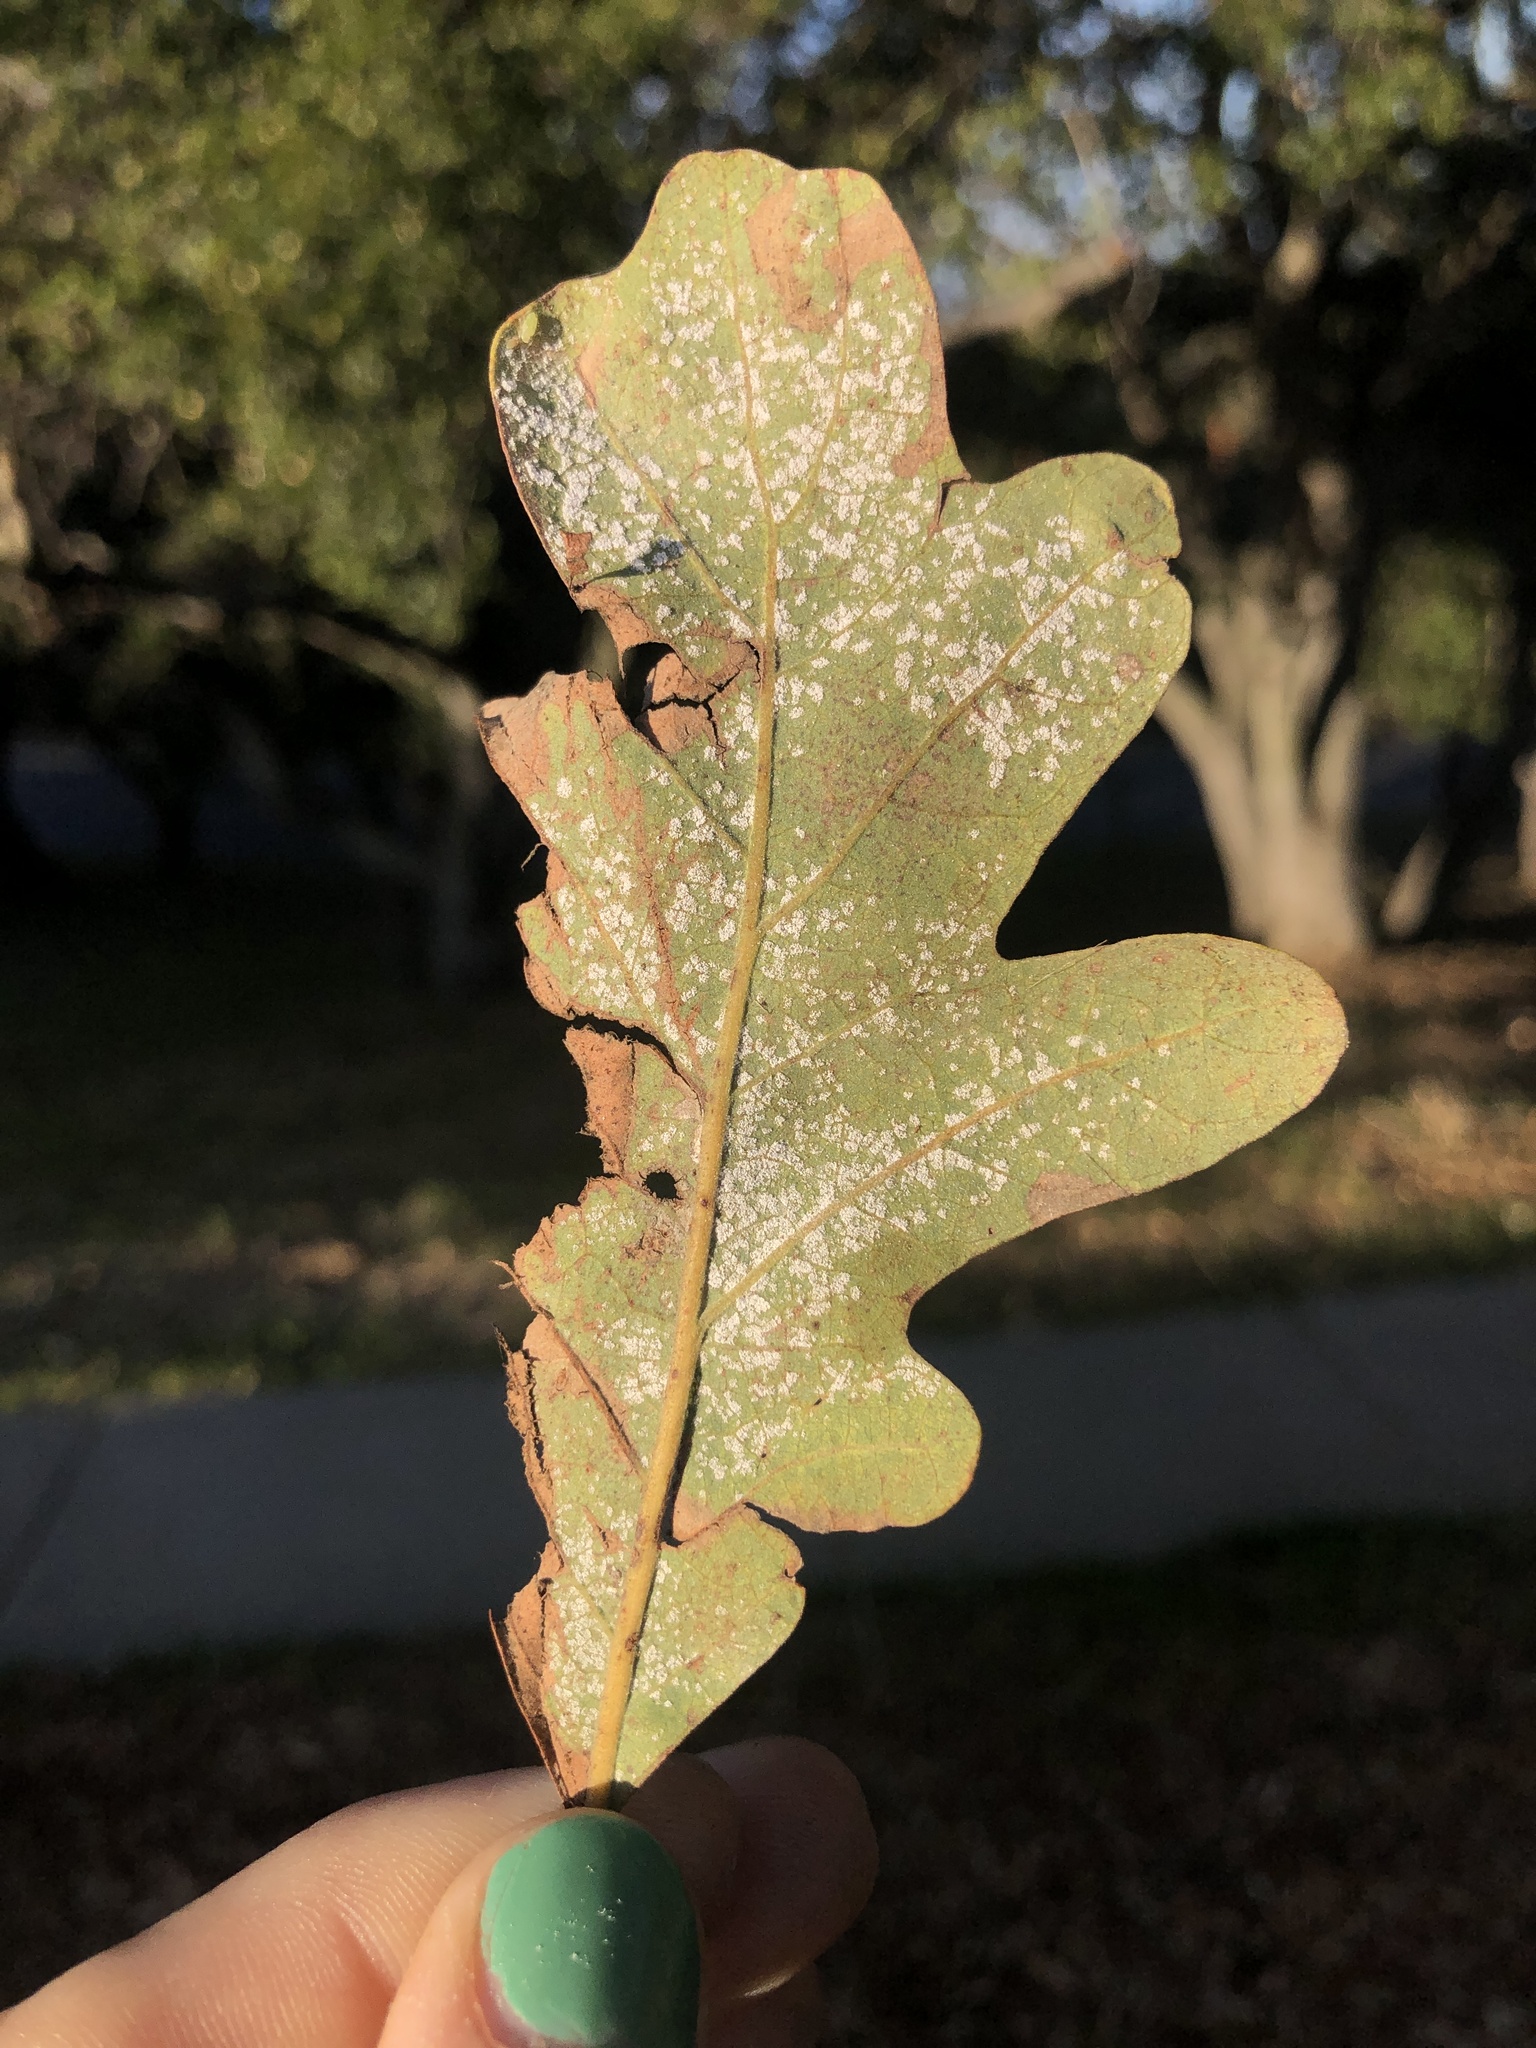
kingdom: Fungi
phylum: Basidiomycota
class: Exobasidiomycetes
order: Microstromatales
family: Microstromataceae
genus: Microstroma
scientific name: Microstroma album
